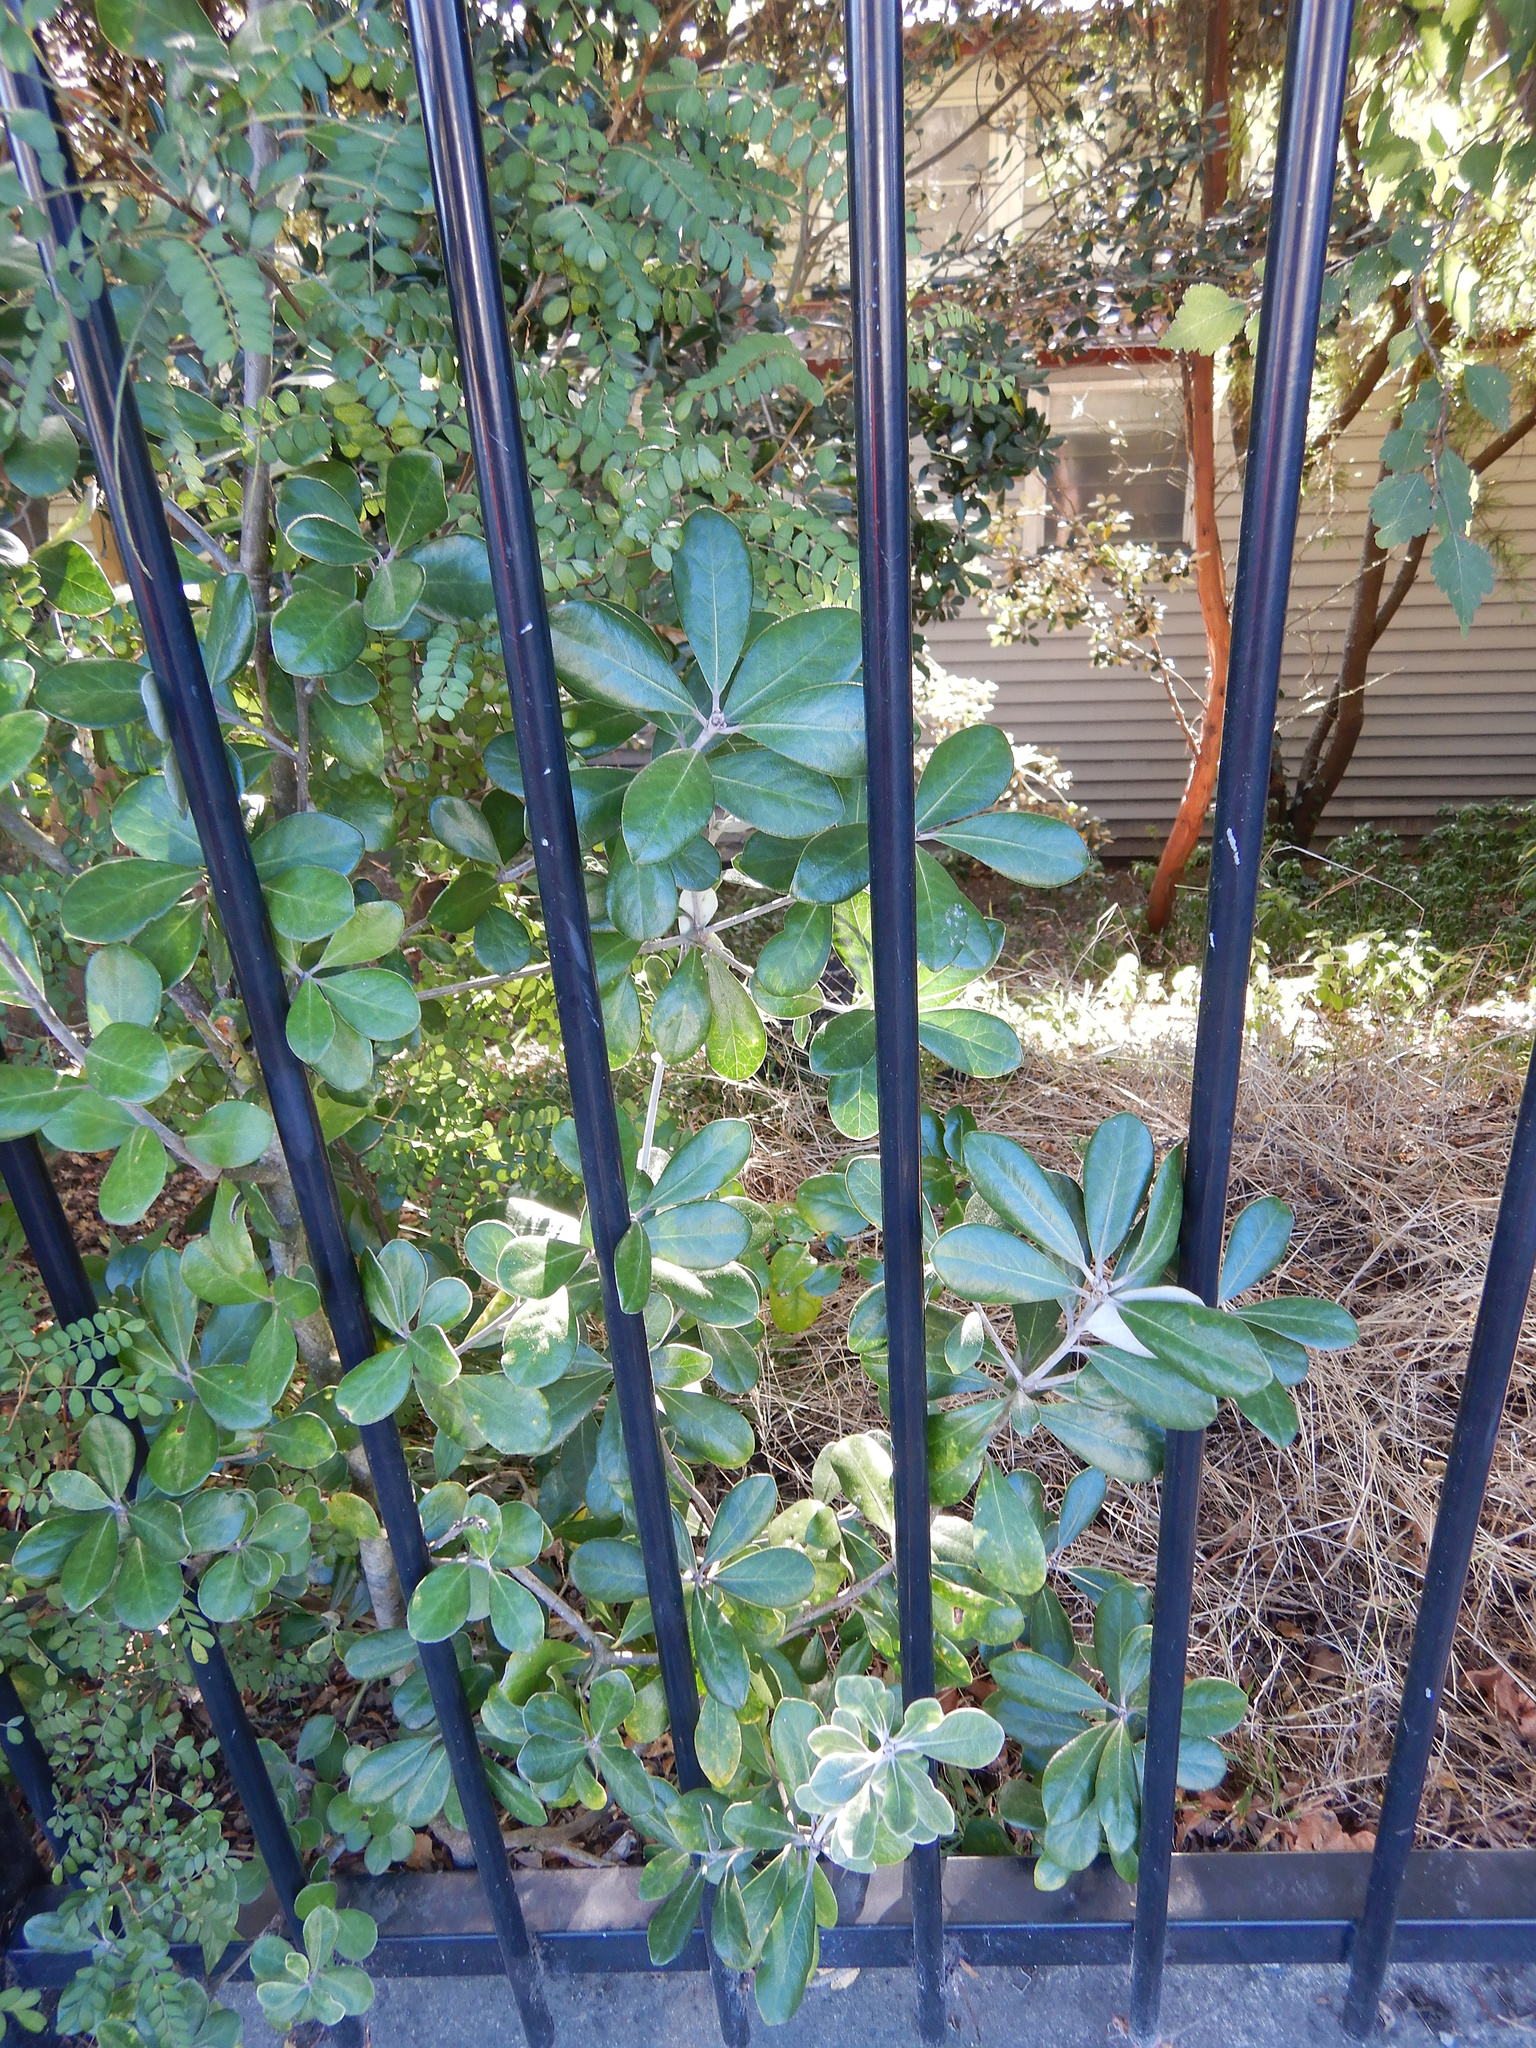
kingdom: Plantae
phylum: Tracheophyta
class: Magnoliopsida
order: Apiales
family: Pittosporaceae
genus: Pittosporum
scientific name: Pittosporum crassifolium
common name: Karo
